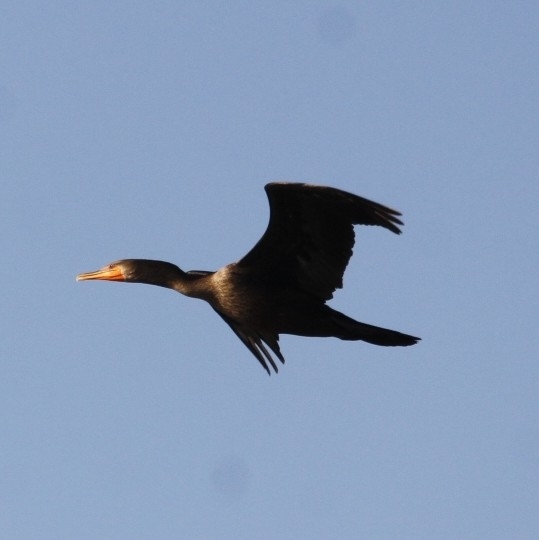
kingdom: Animalia
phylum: Chordata
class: Aves
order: Suliformes
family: Phalacrocoracidae
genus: Phalacrocorax
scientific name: Phalacrocorax auritus
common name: Double-crested cormorant
